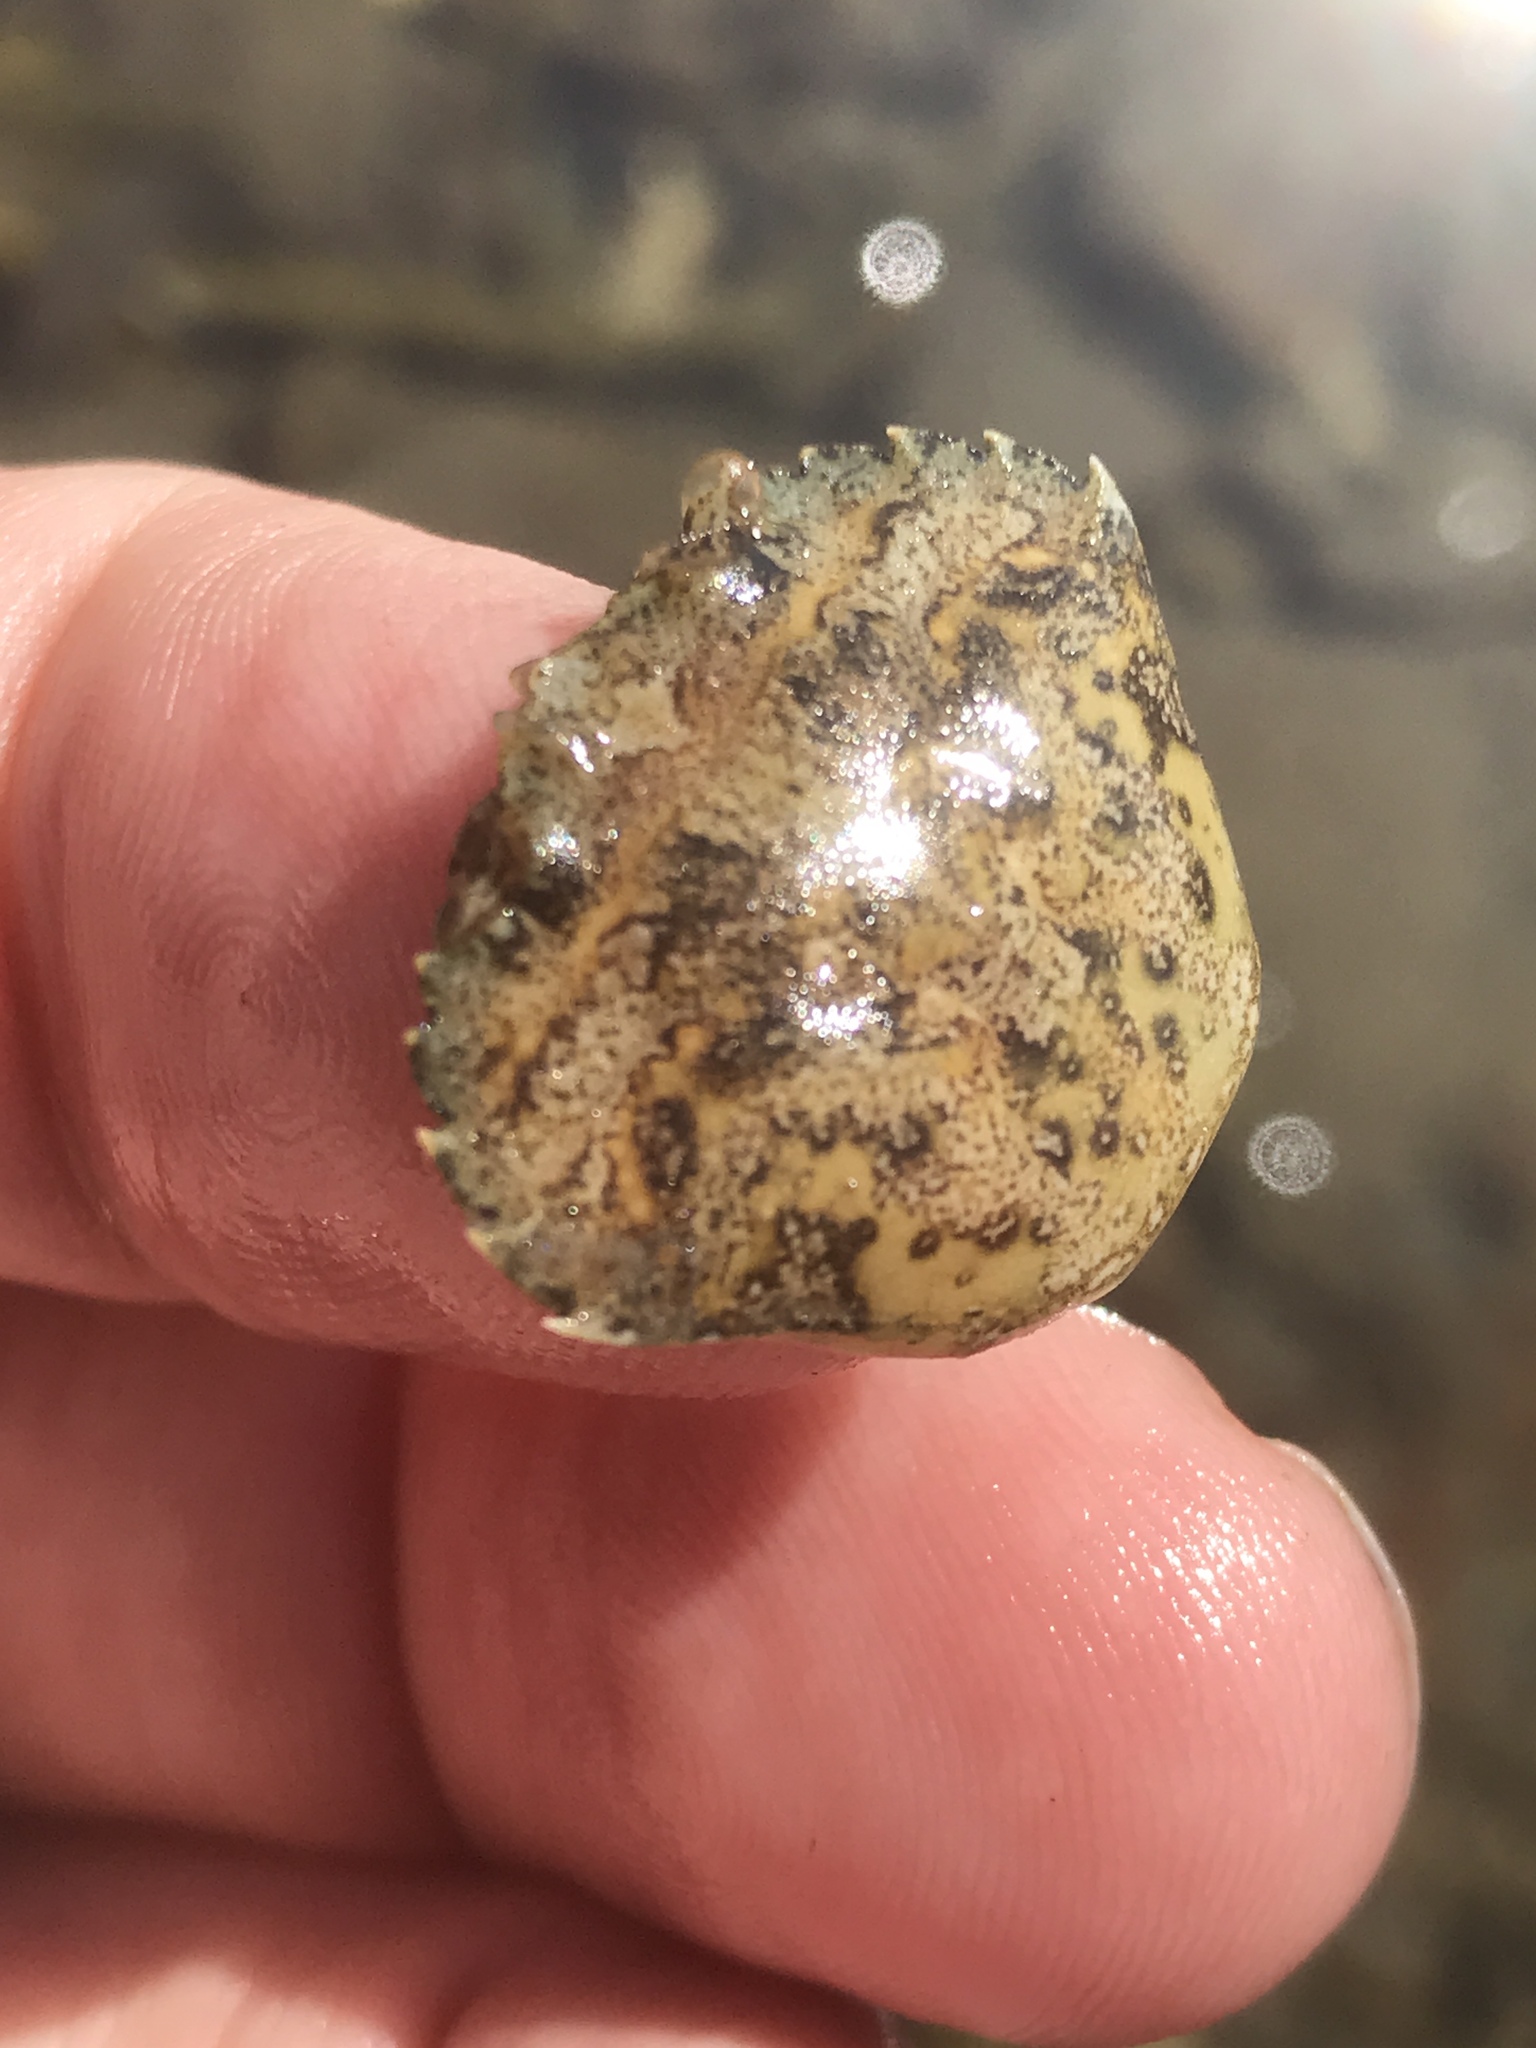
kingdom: Animalia
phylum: Arthropoda
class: Malacostraca
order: Decapoda
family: Carcinidae
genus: Carcinus
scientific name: Carcinus maenas
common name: European green crab
